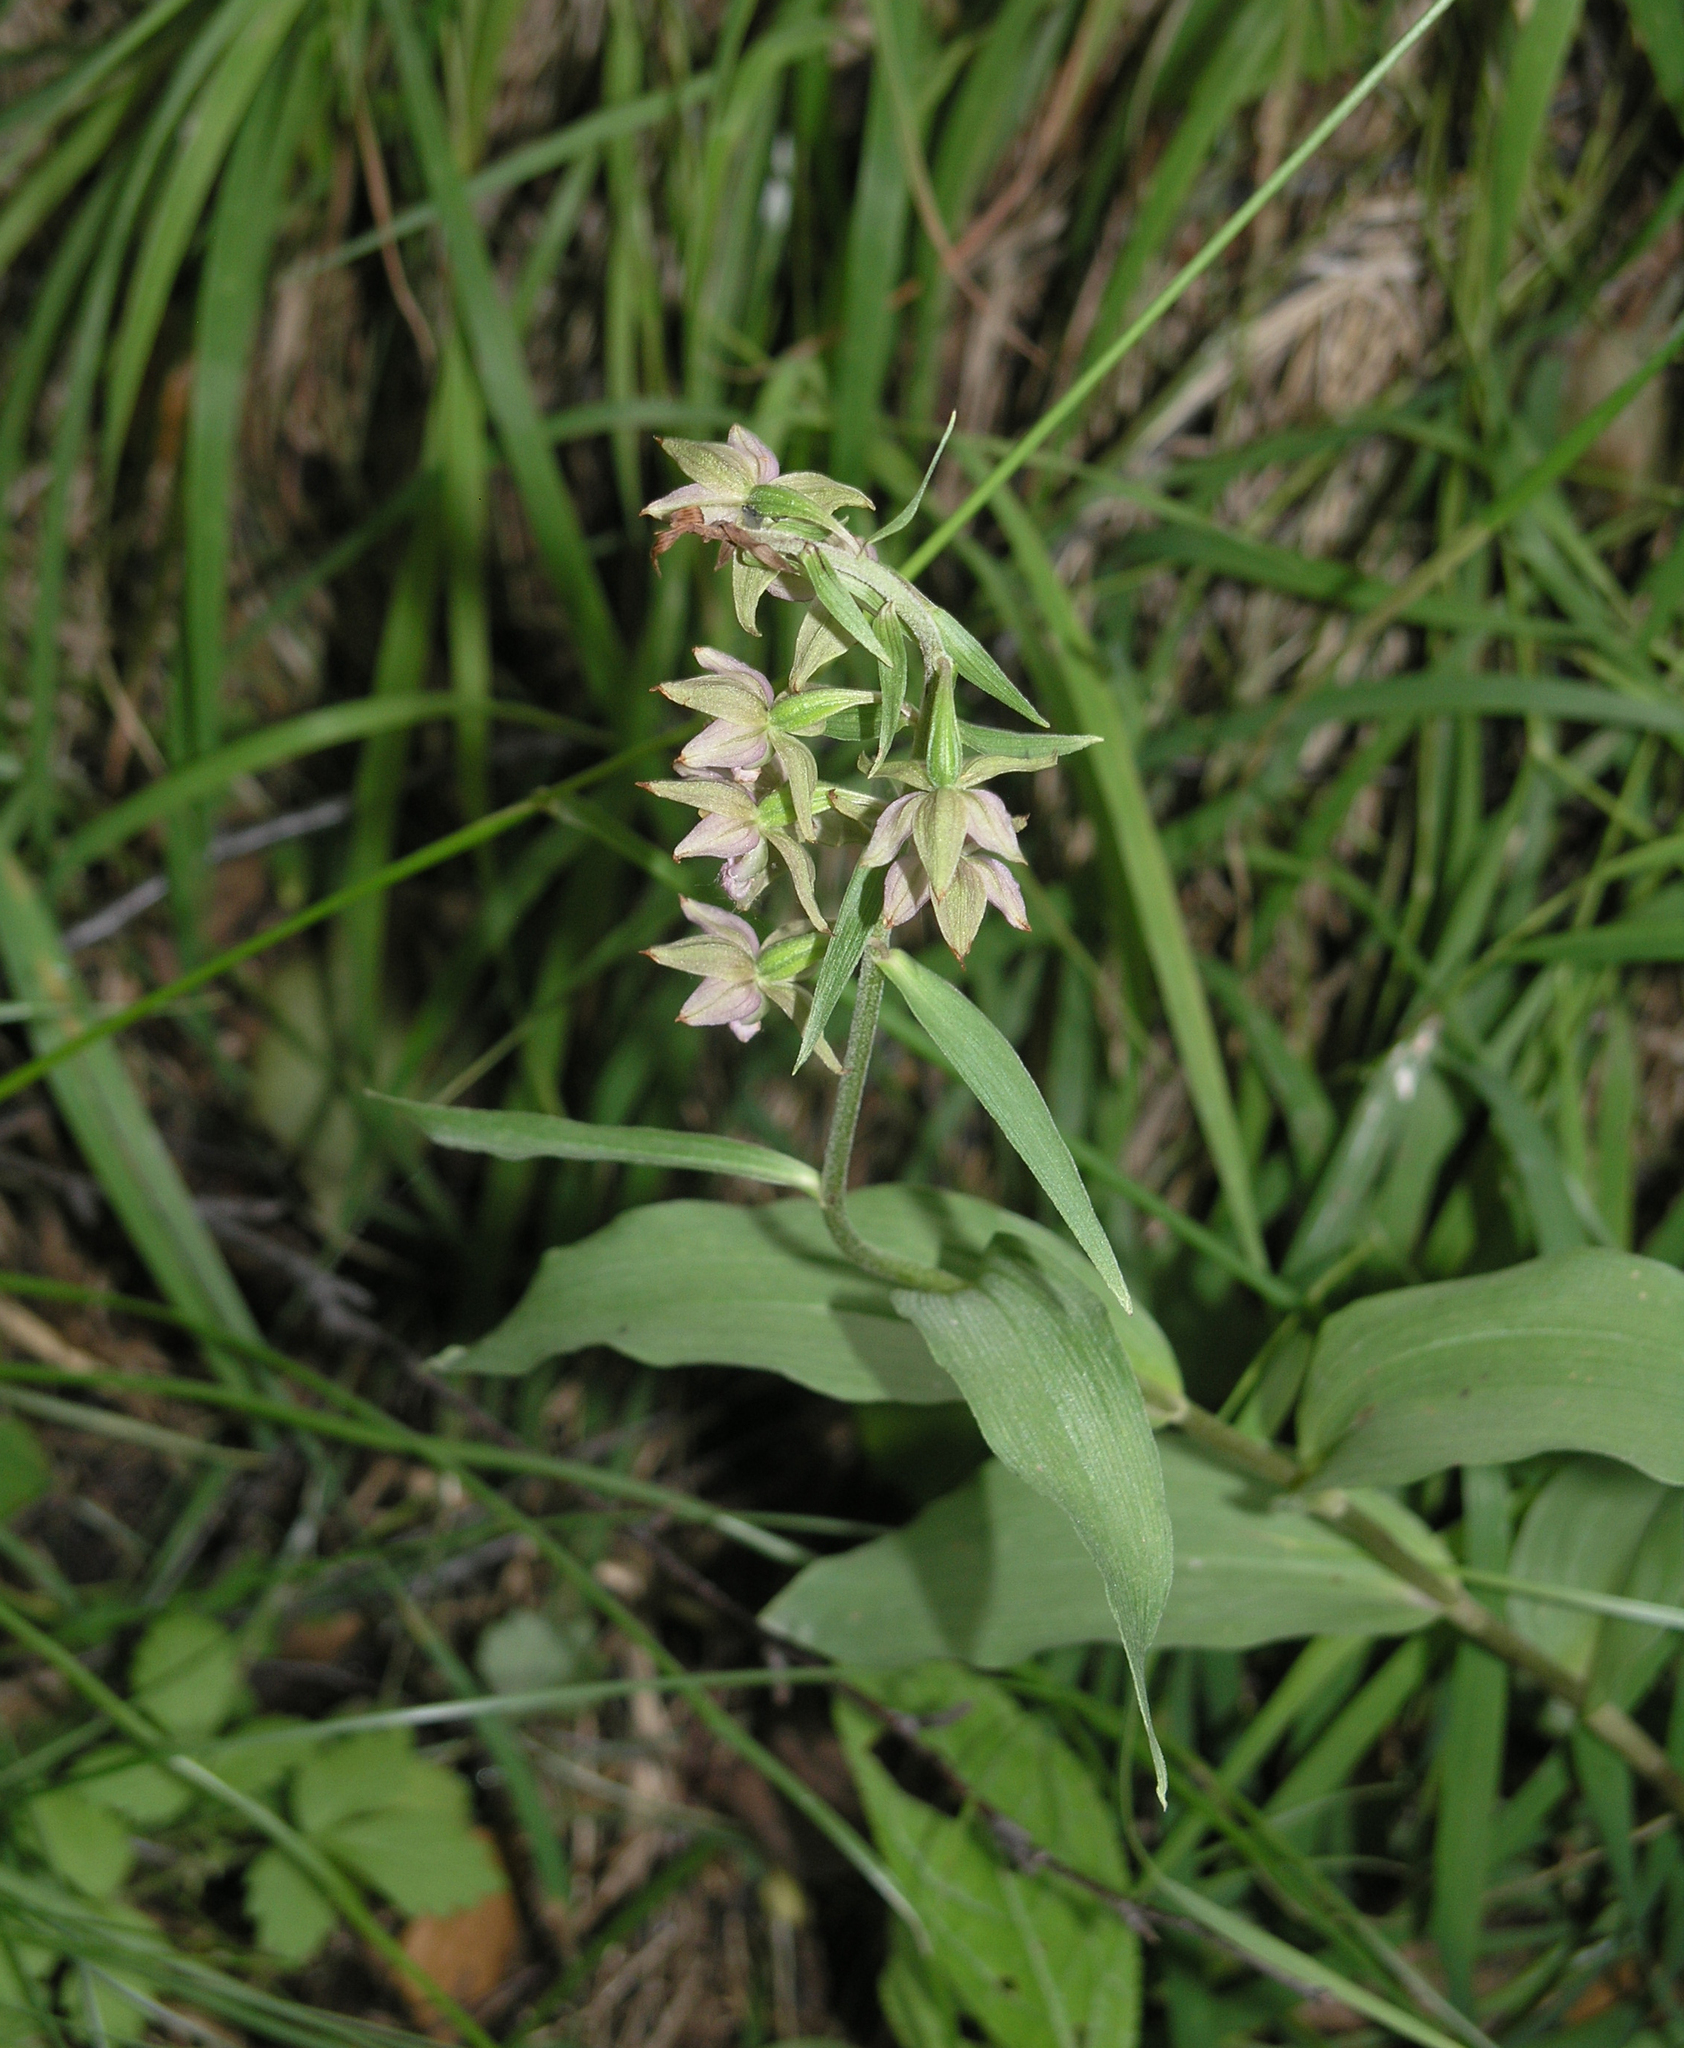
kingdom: Plantae
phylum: Tracheophyta
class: Liliopsida
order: Asparagales
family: Orchidaceae
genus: Epipactis
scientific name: Epipactis helleborine
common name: Broad-leaved helleborine
